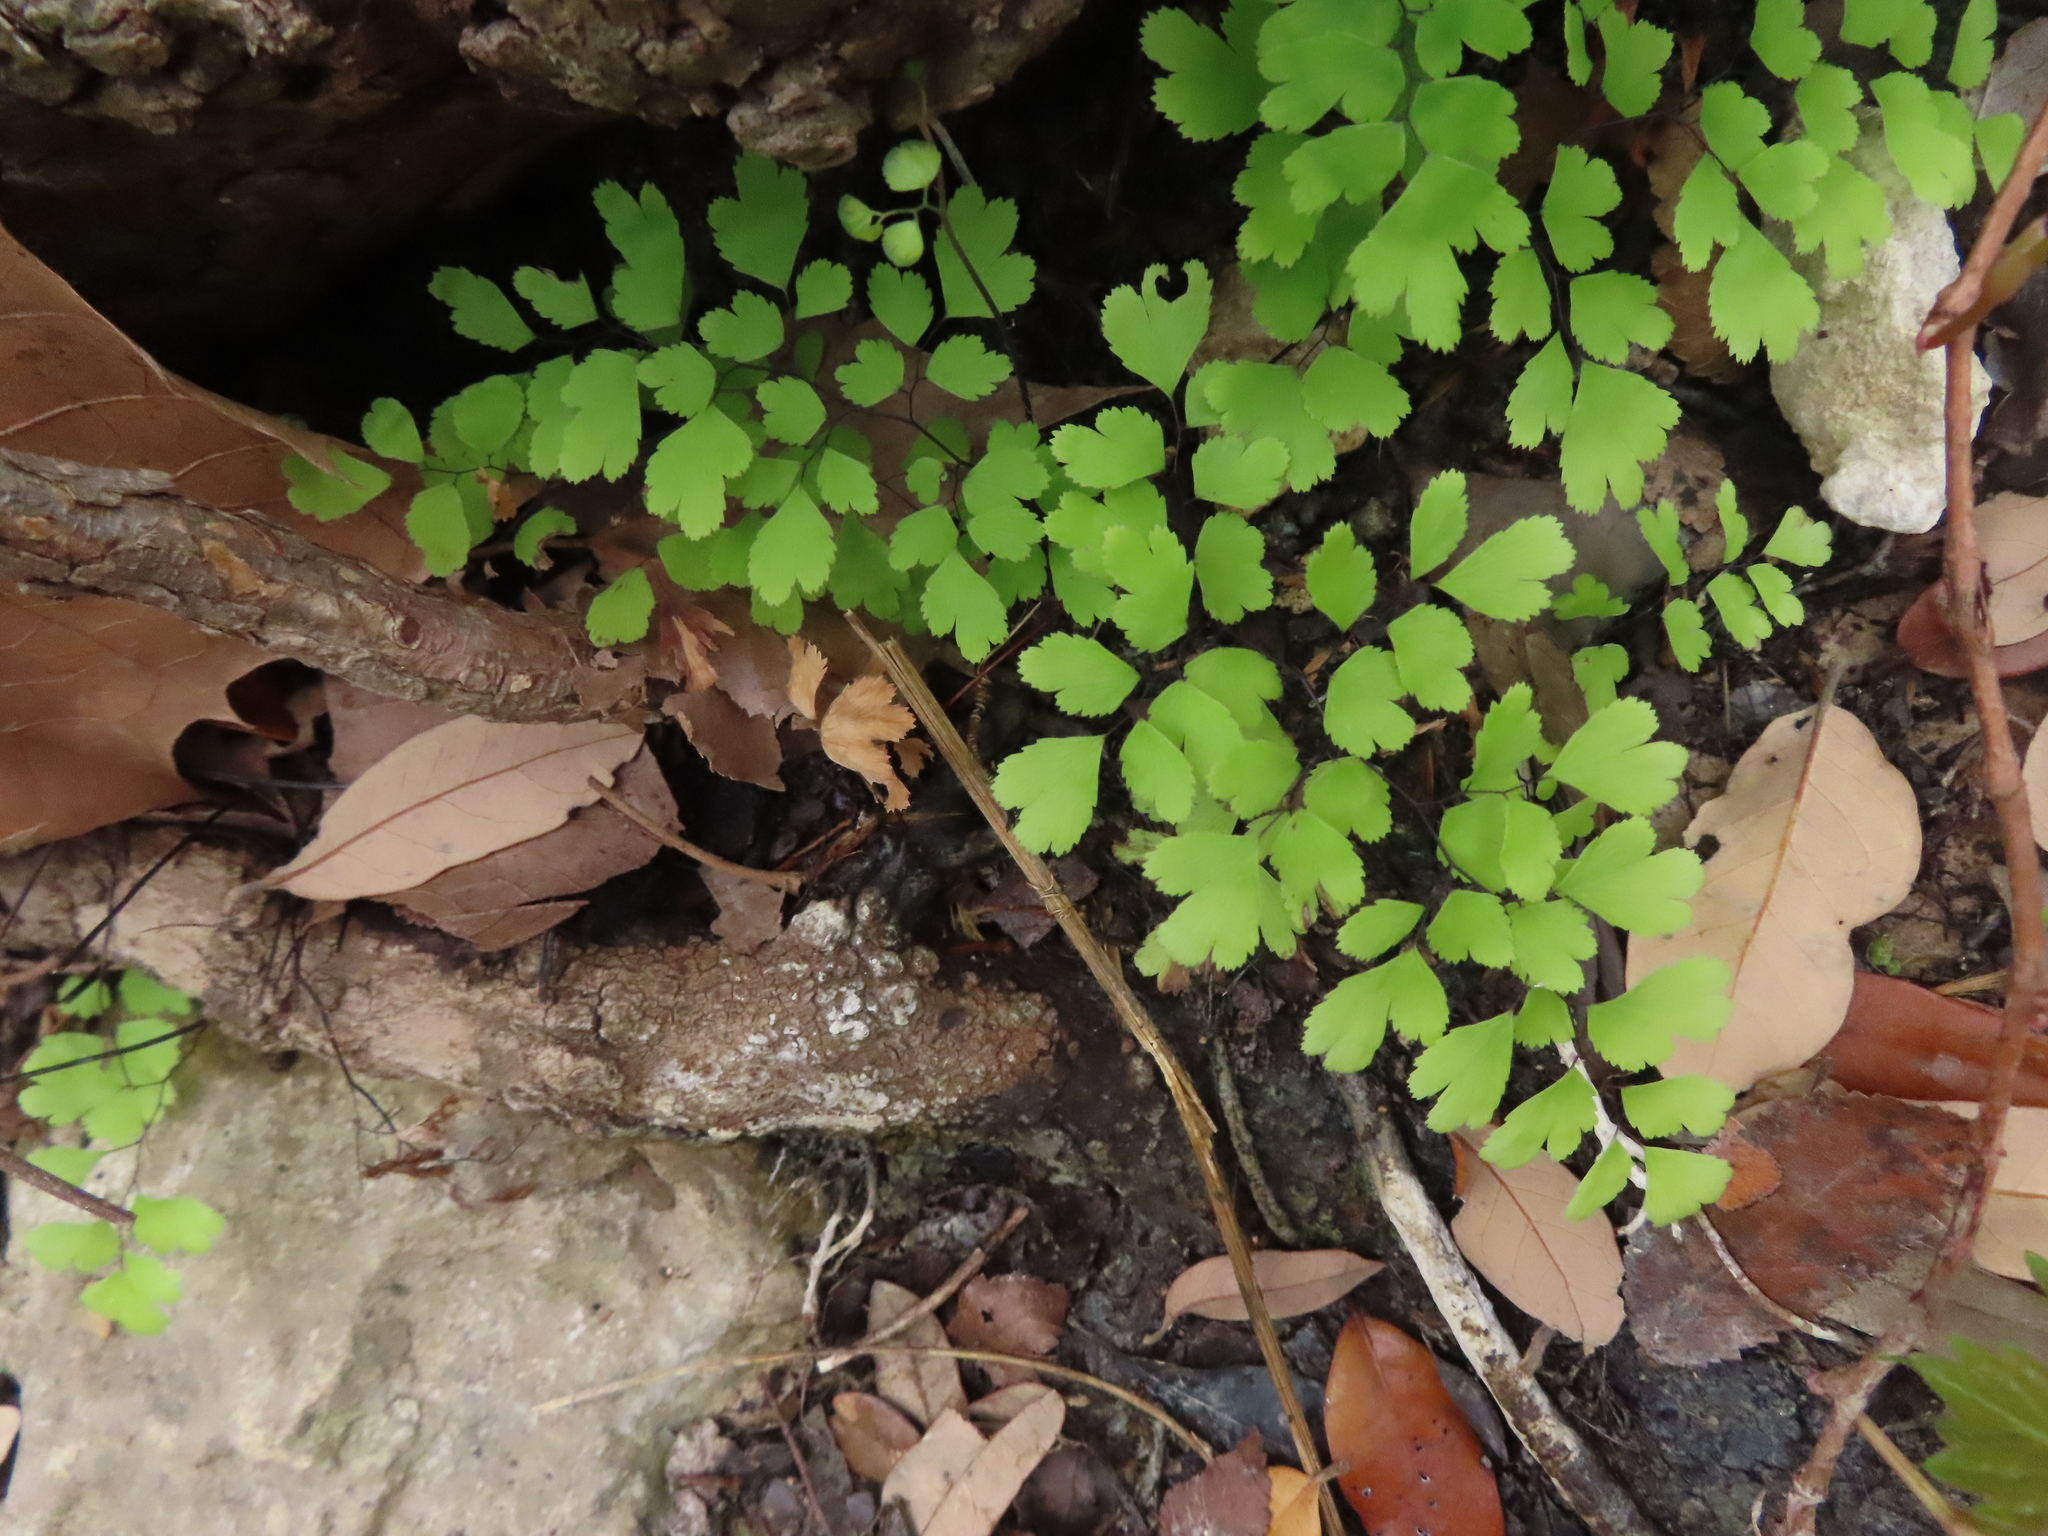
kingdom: Plantae
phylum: Tracheophyta
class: Polypodiopsida
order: Polypodiales
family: Pteridaceae
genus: Adiantum
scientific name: Adiantum capillus-veneris
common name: Maidenhair fern
